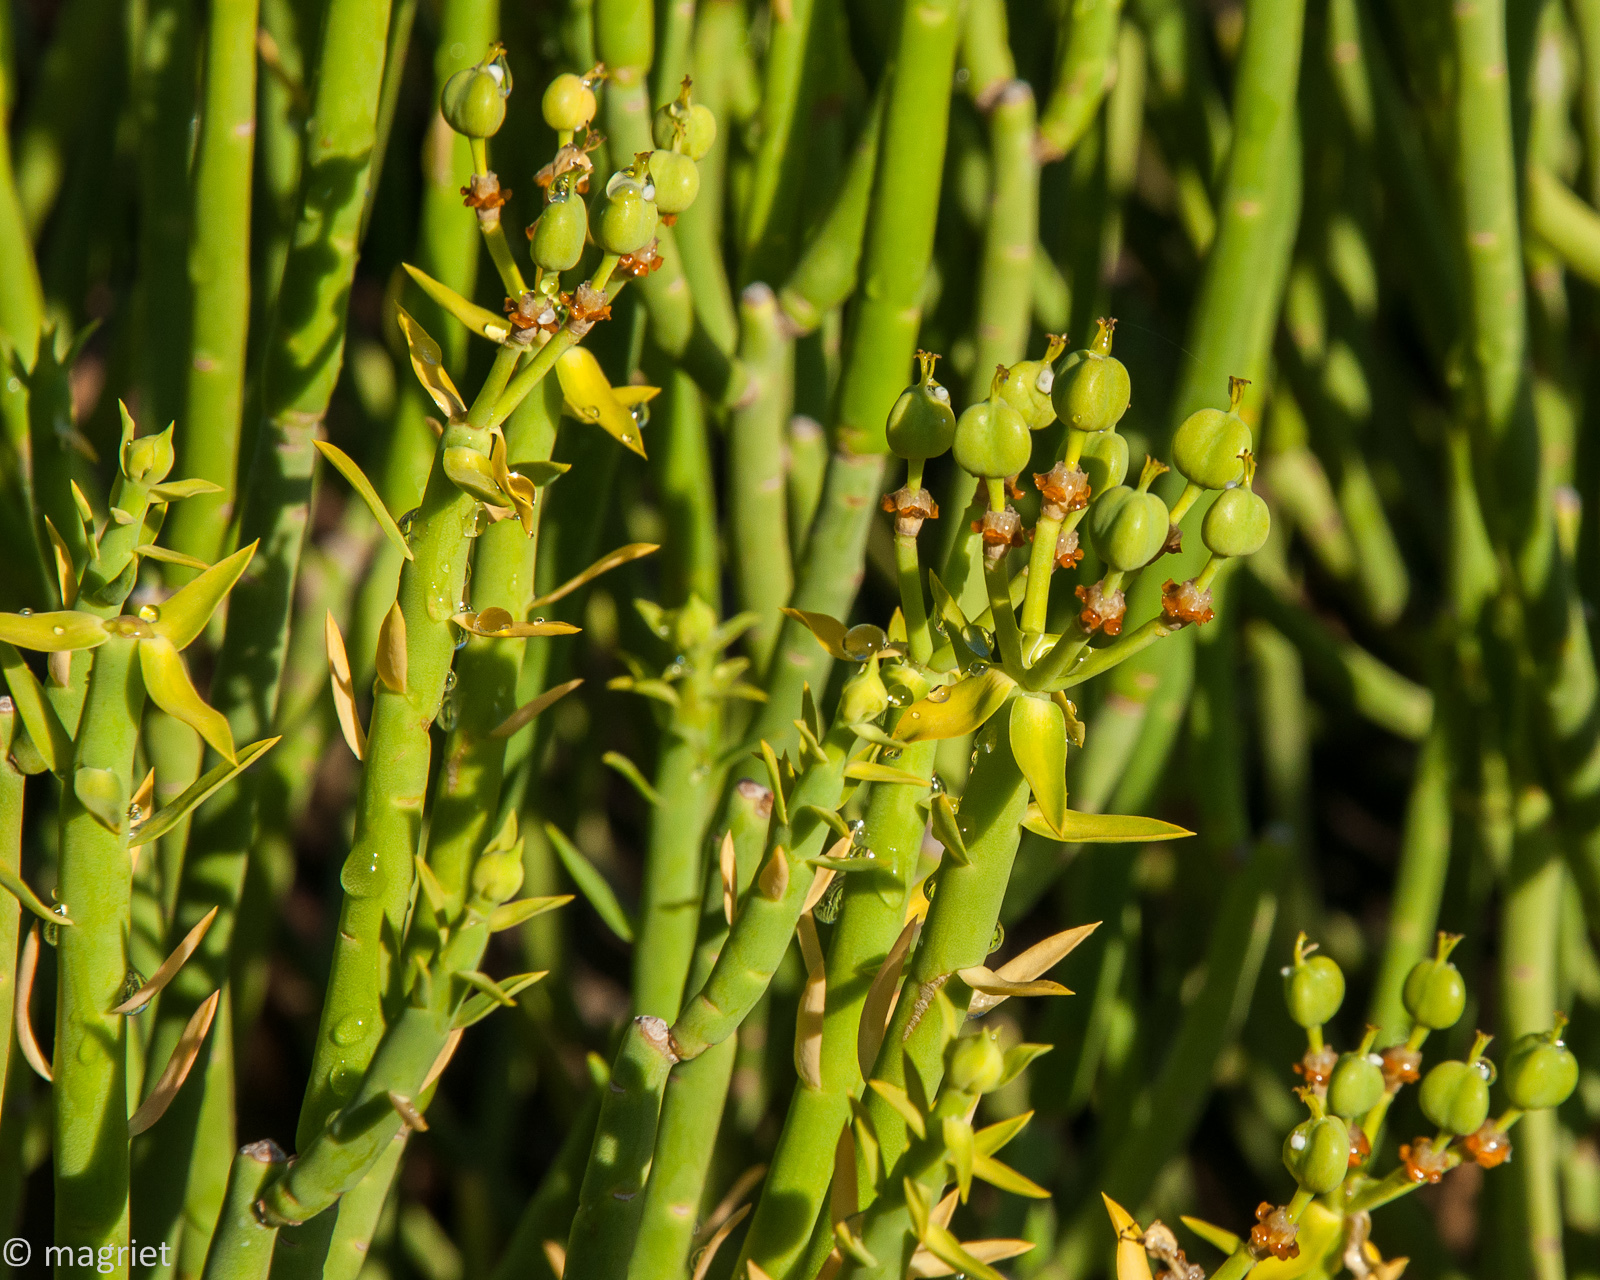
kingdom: Plantae
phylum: Tracheophyta
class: Magnoliopsida
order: Malpighiales
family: Euphorbiaceae
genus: Euphorbia
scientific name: Euphorbia mauritanica
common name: Jackal's-food
